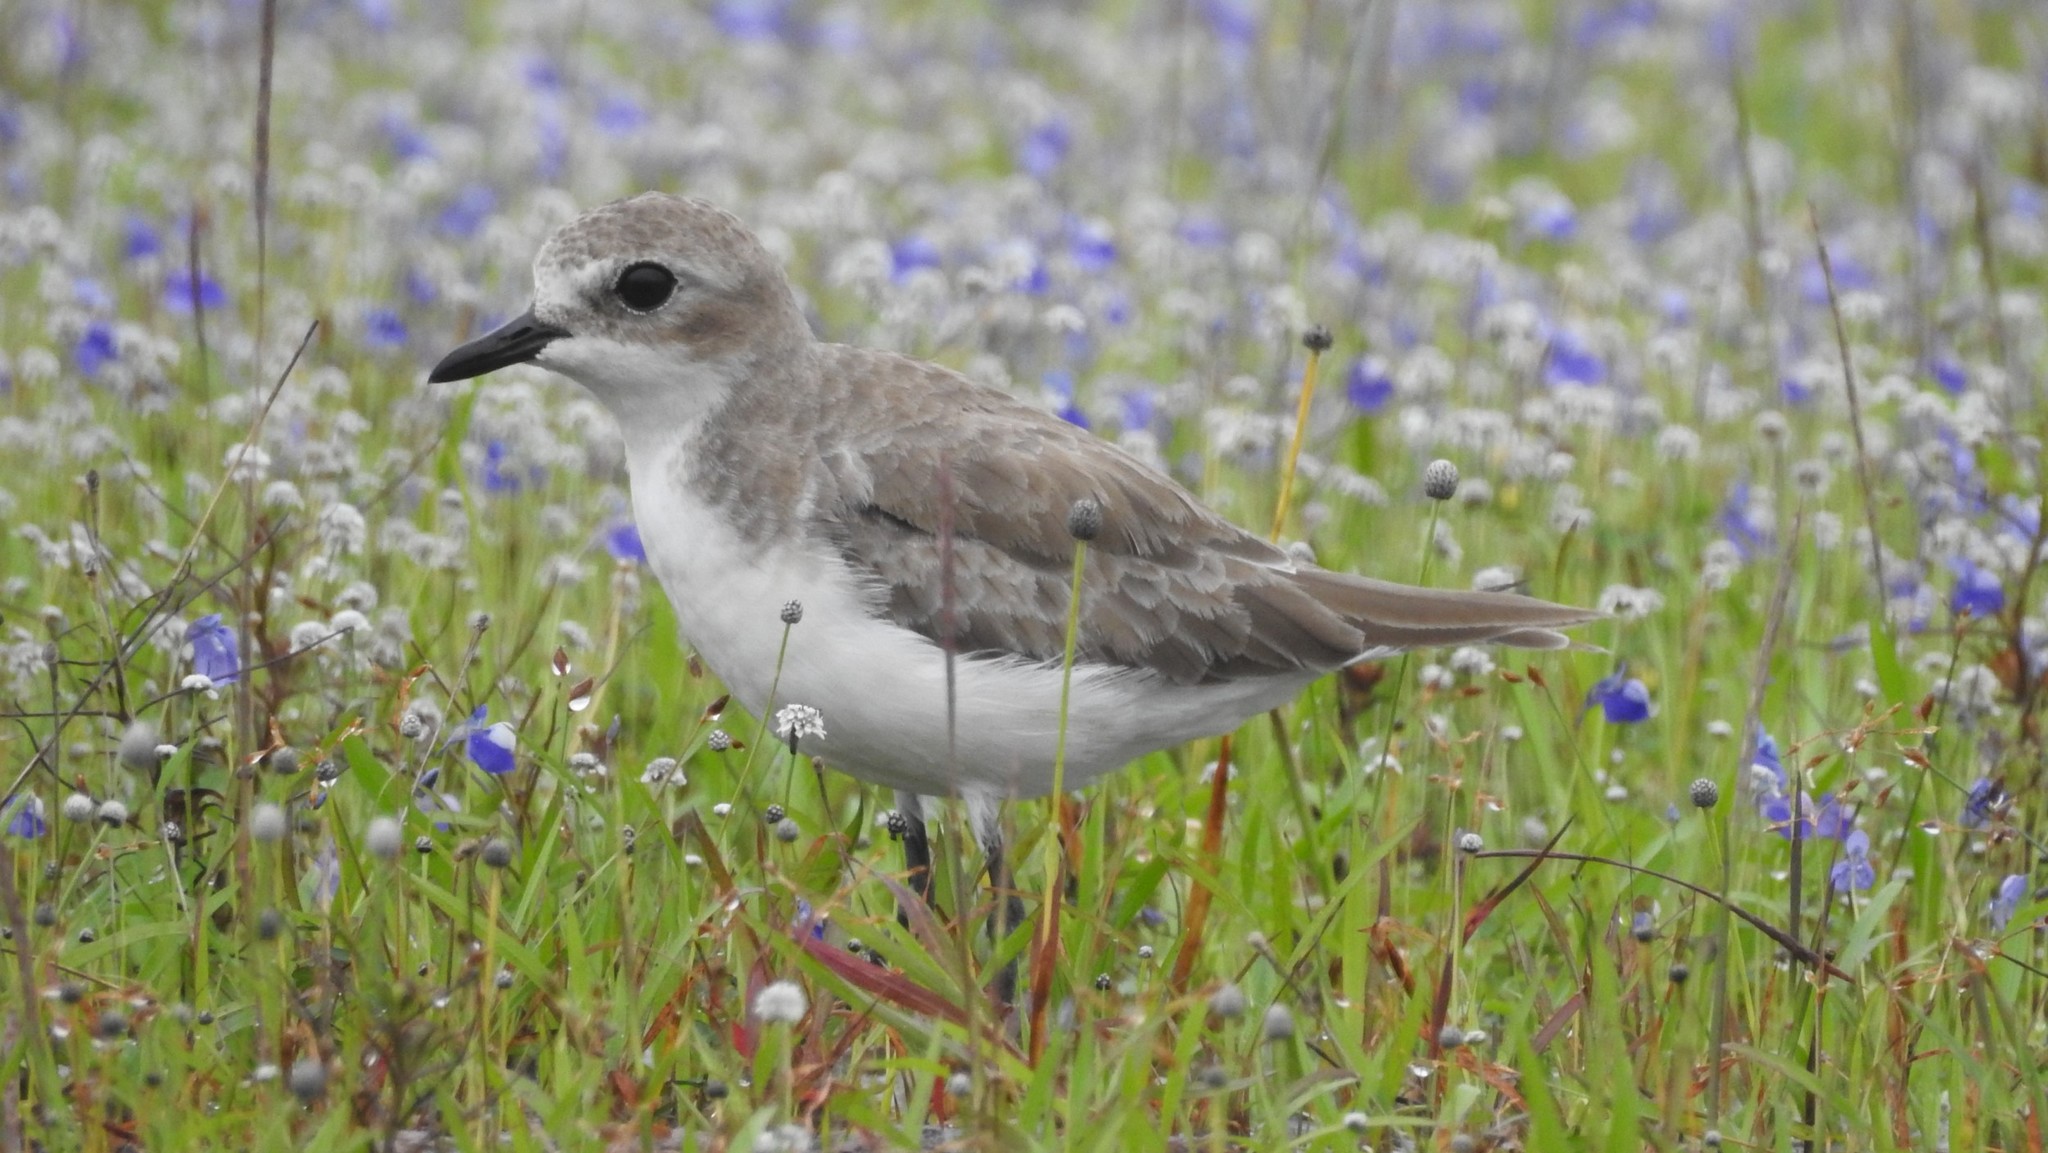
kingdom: Animalia
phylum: Chordata
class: Aves
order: Charadriiformes
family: Charadriidae
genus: Anarhynchus
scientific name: Anarhynchus
